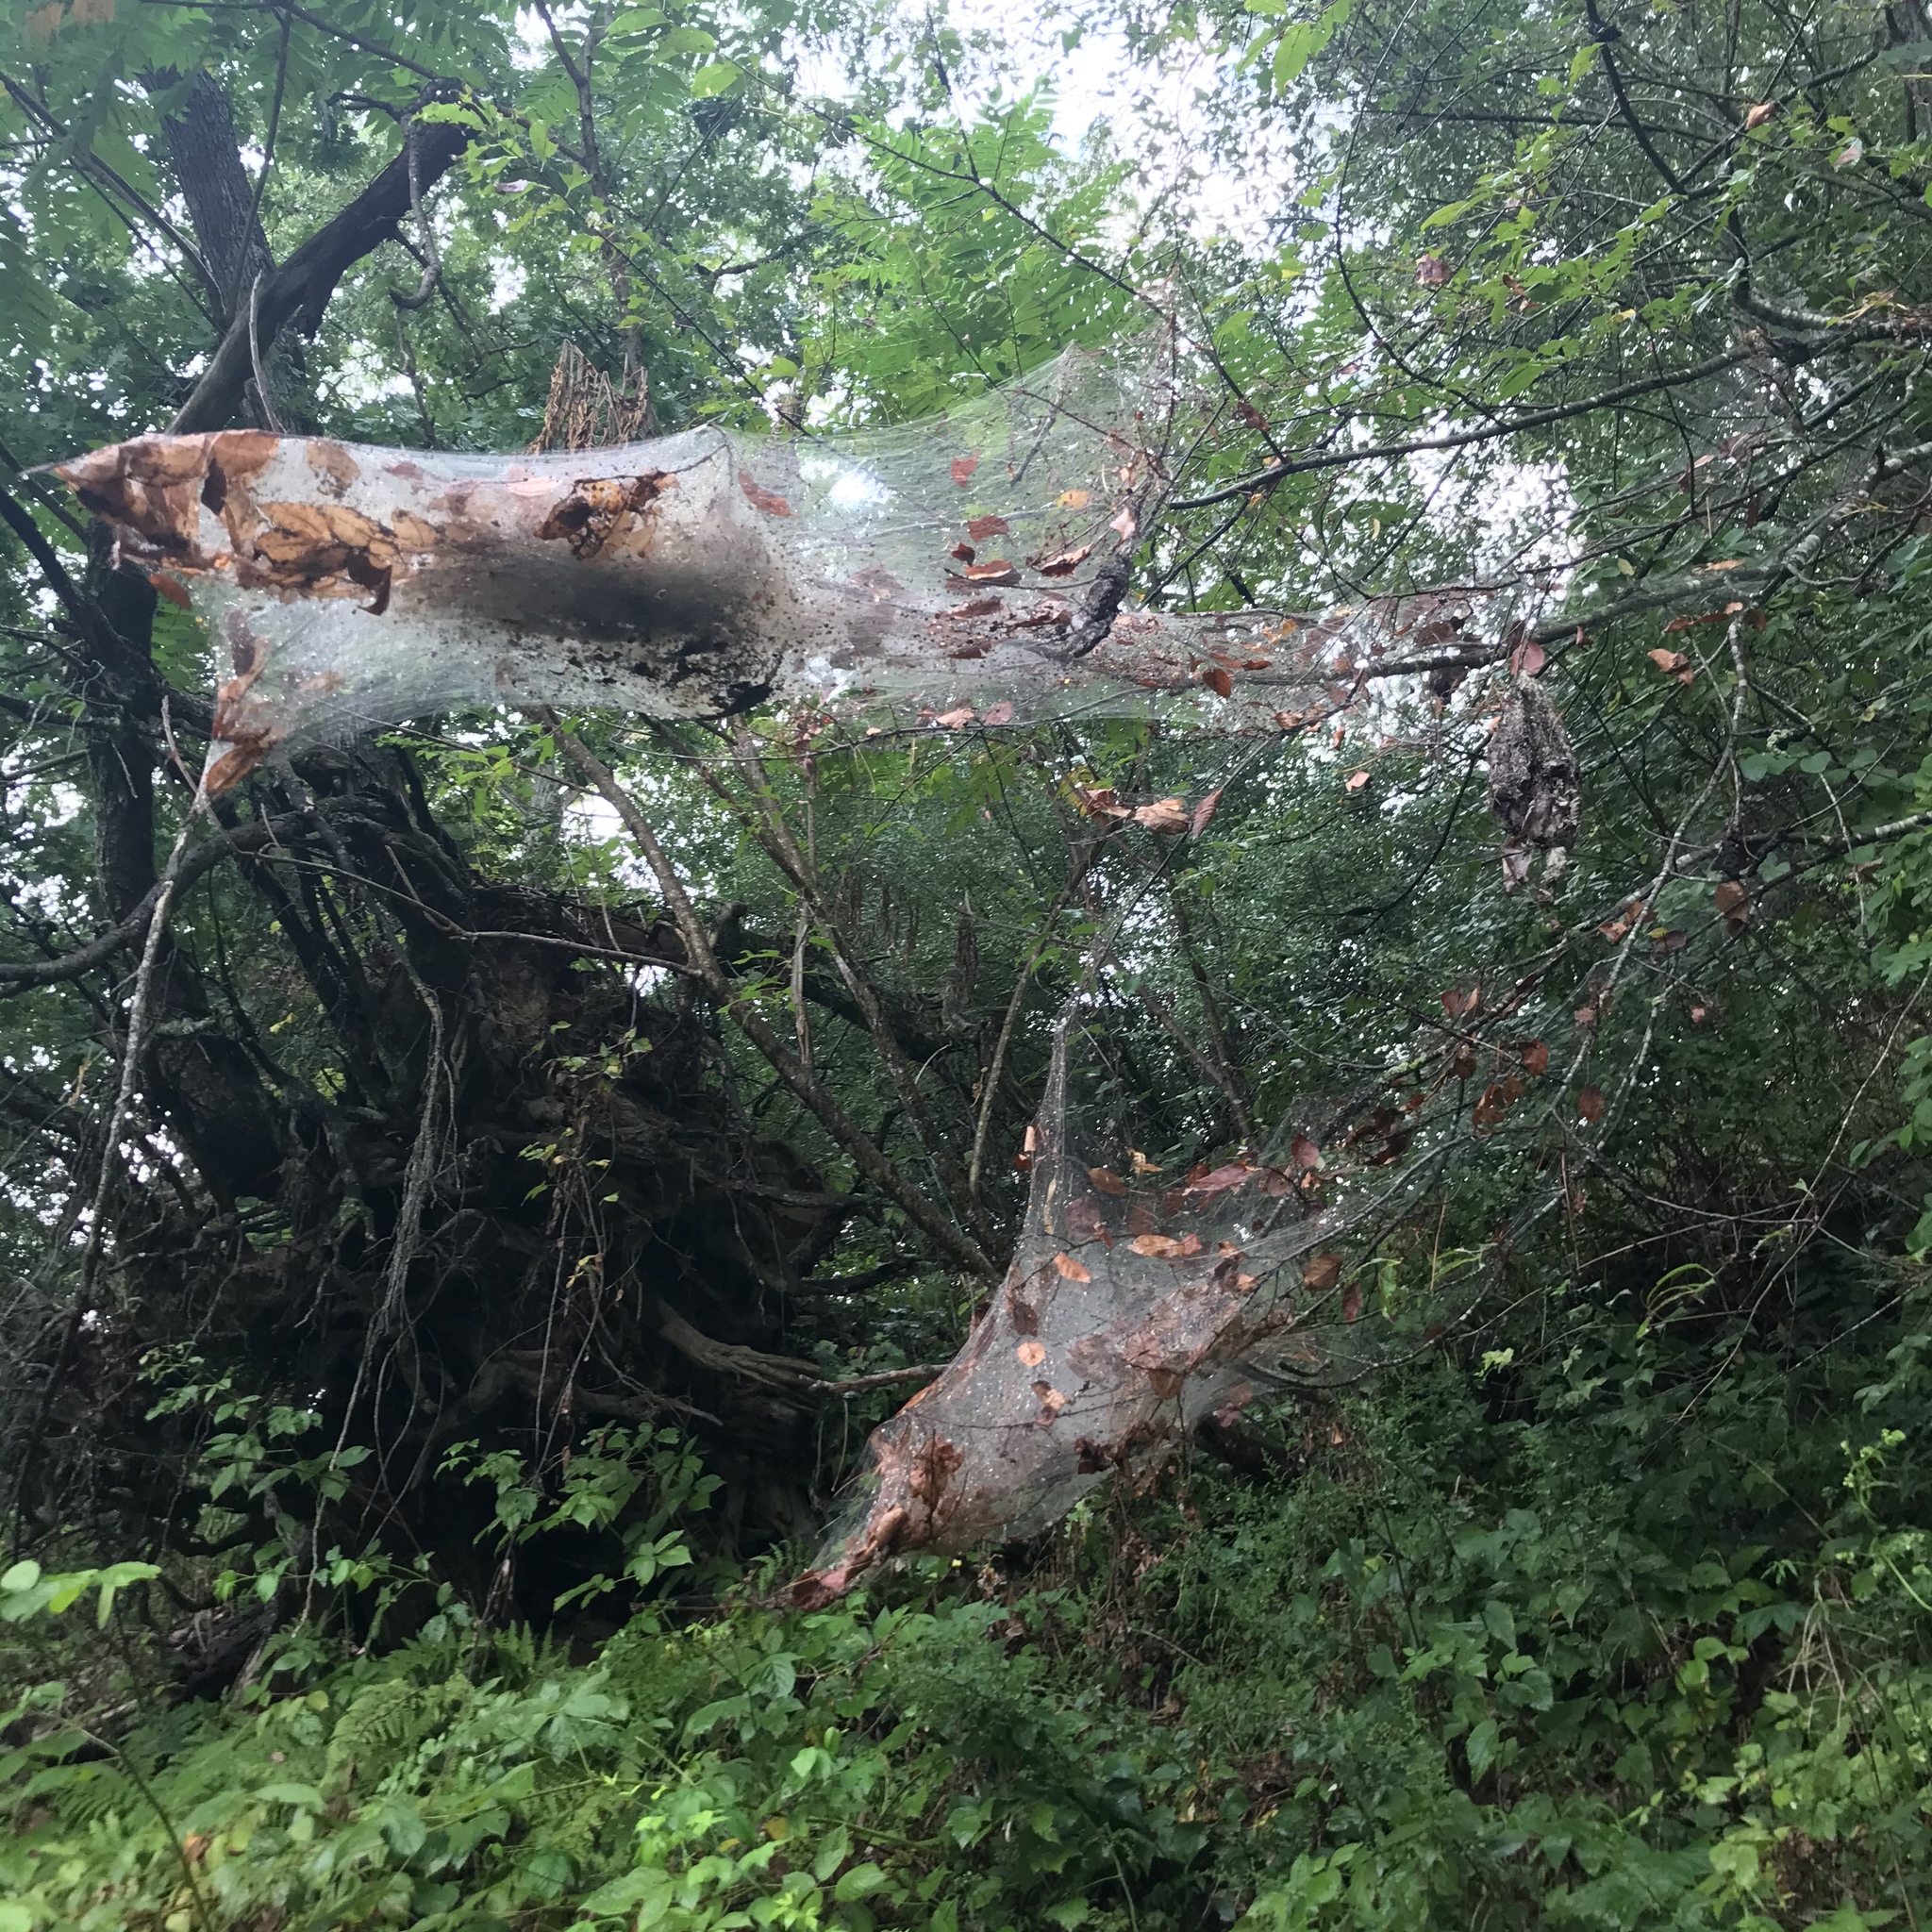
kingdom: Animalia
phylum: Arthropoda
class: Insecta
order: Lepidoptera
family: Erebidae
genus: Hyphantria
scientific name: Hyphantria cunea
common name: American white moth
